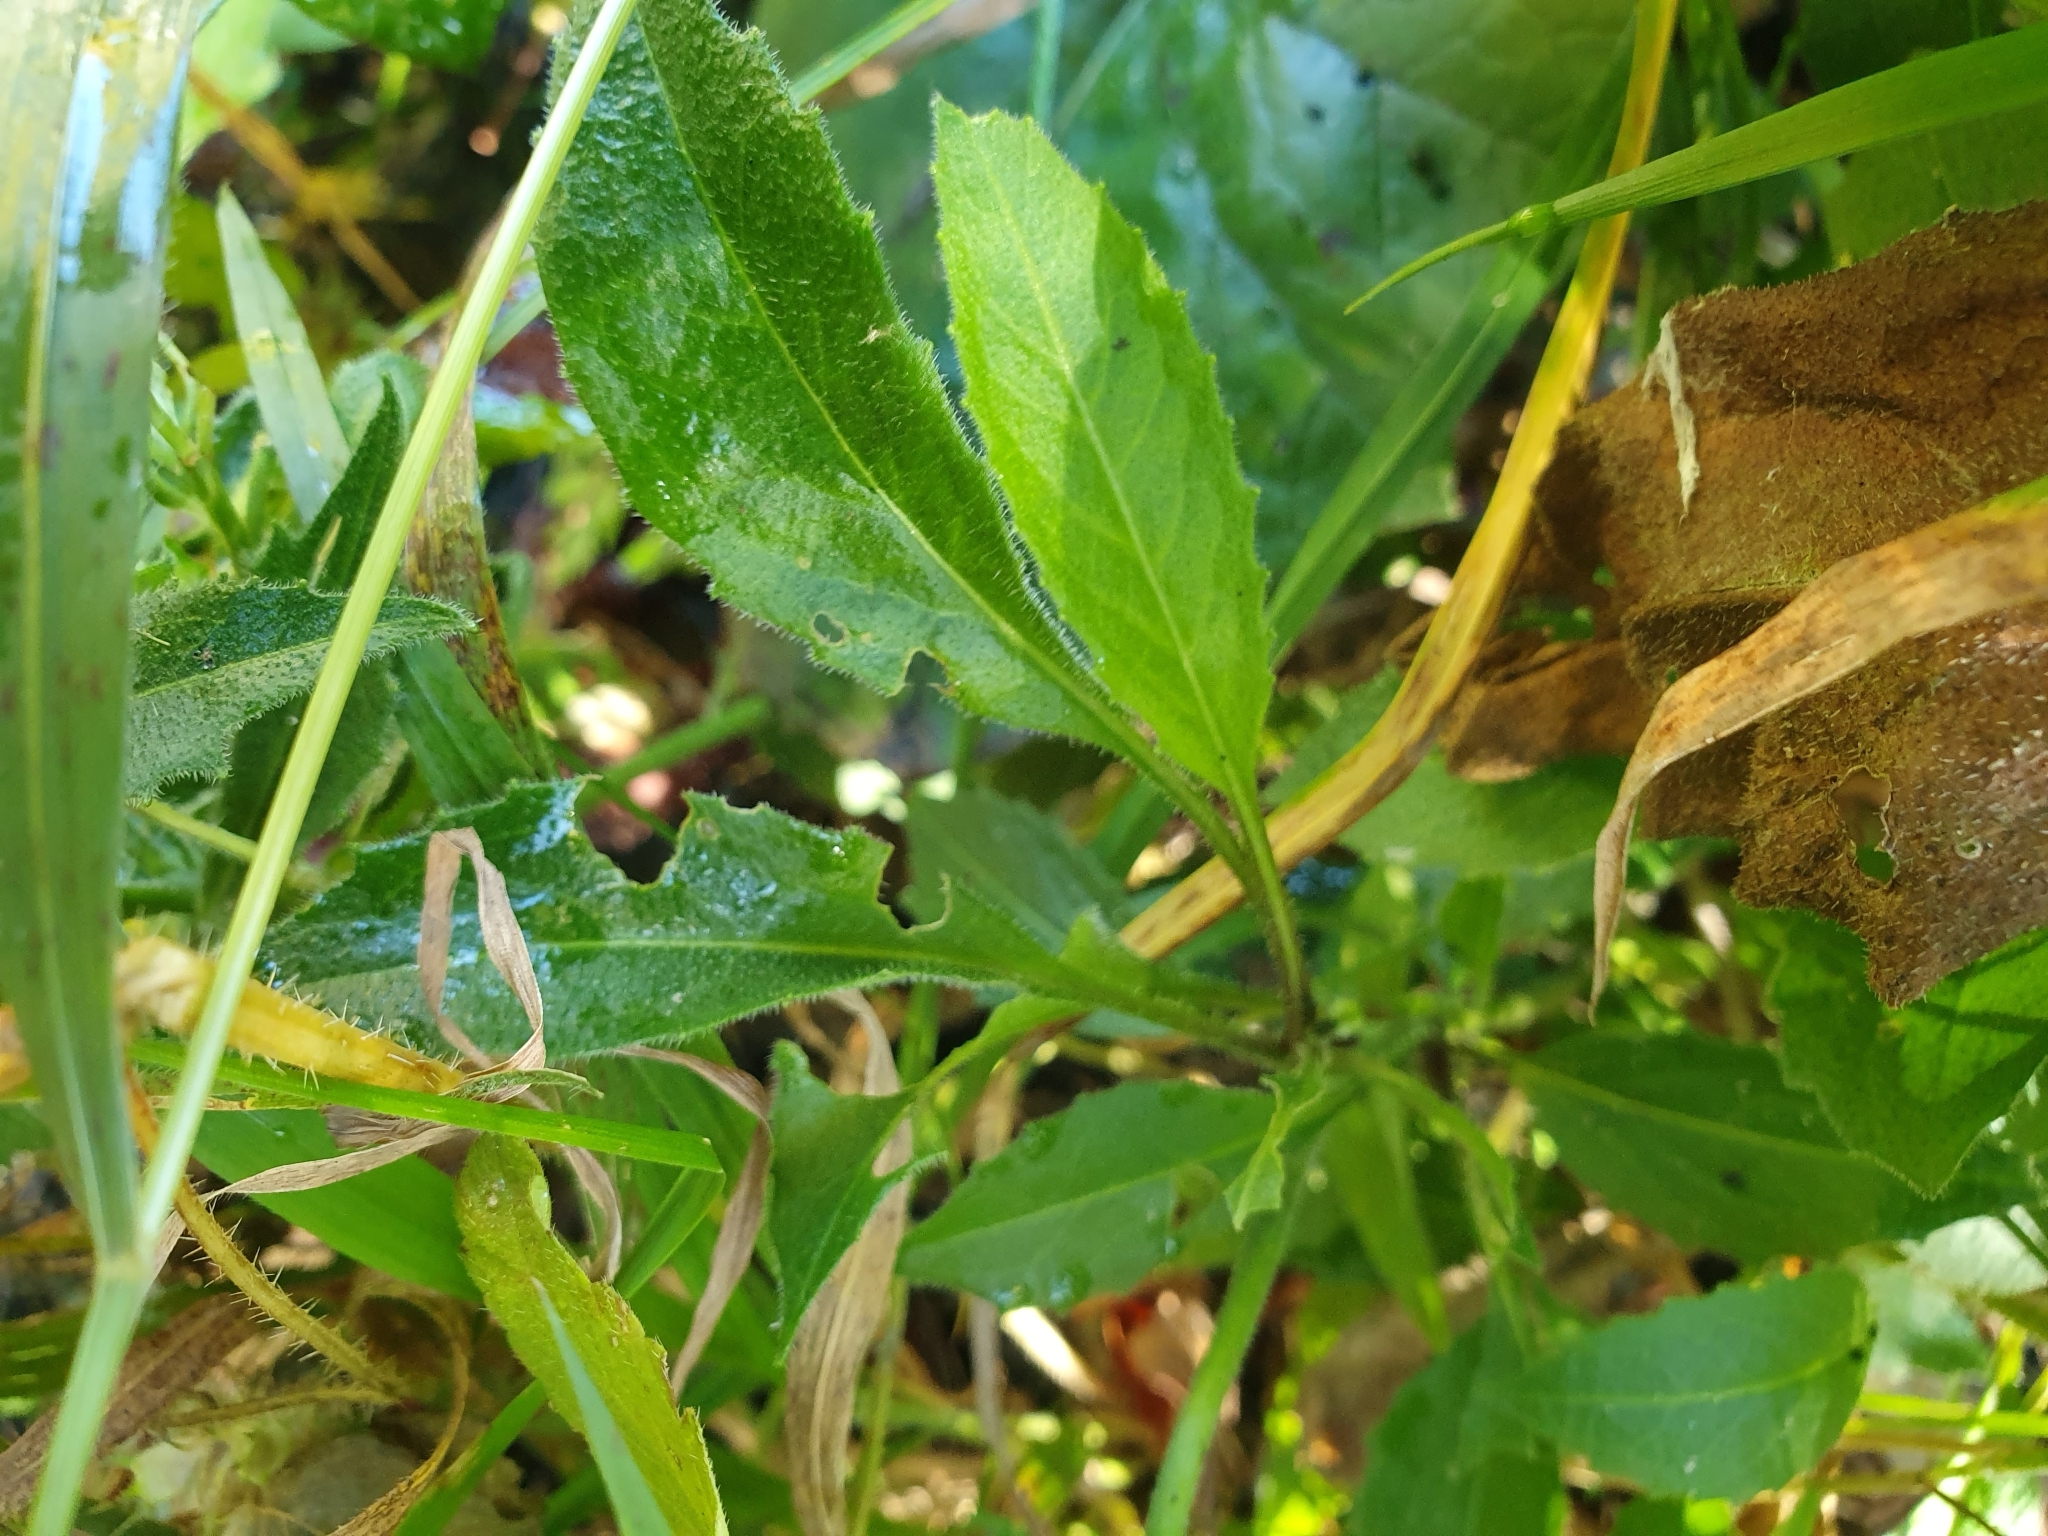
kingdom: Plantae
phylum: Tracheophyta
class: Magnoliopsida
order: Brassicales
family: Brassicaceae
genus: Hesperis
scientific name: Hesperis matronalis
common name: Dame's-violet
